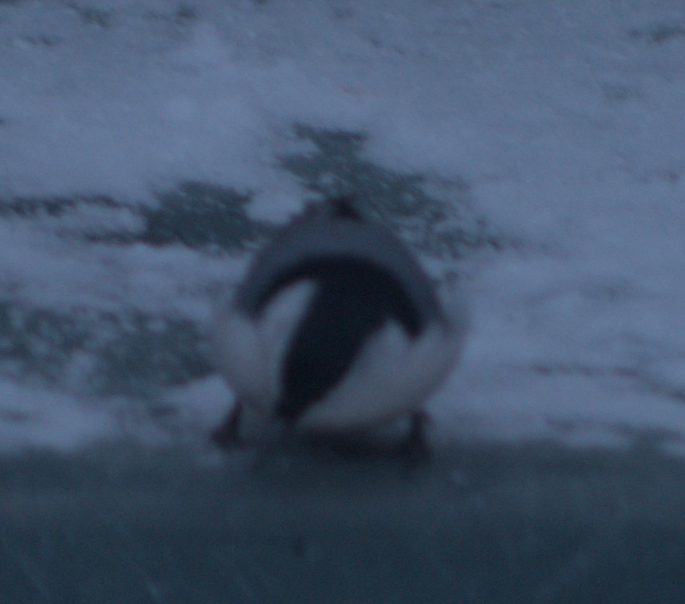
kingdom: Animalia
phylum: Chordata
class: Aves
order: Passeriformes
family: Sittidae
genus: Sitta
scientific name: Sitta carolinensis
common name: White-breasted nuthatch
